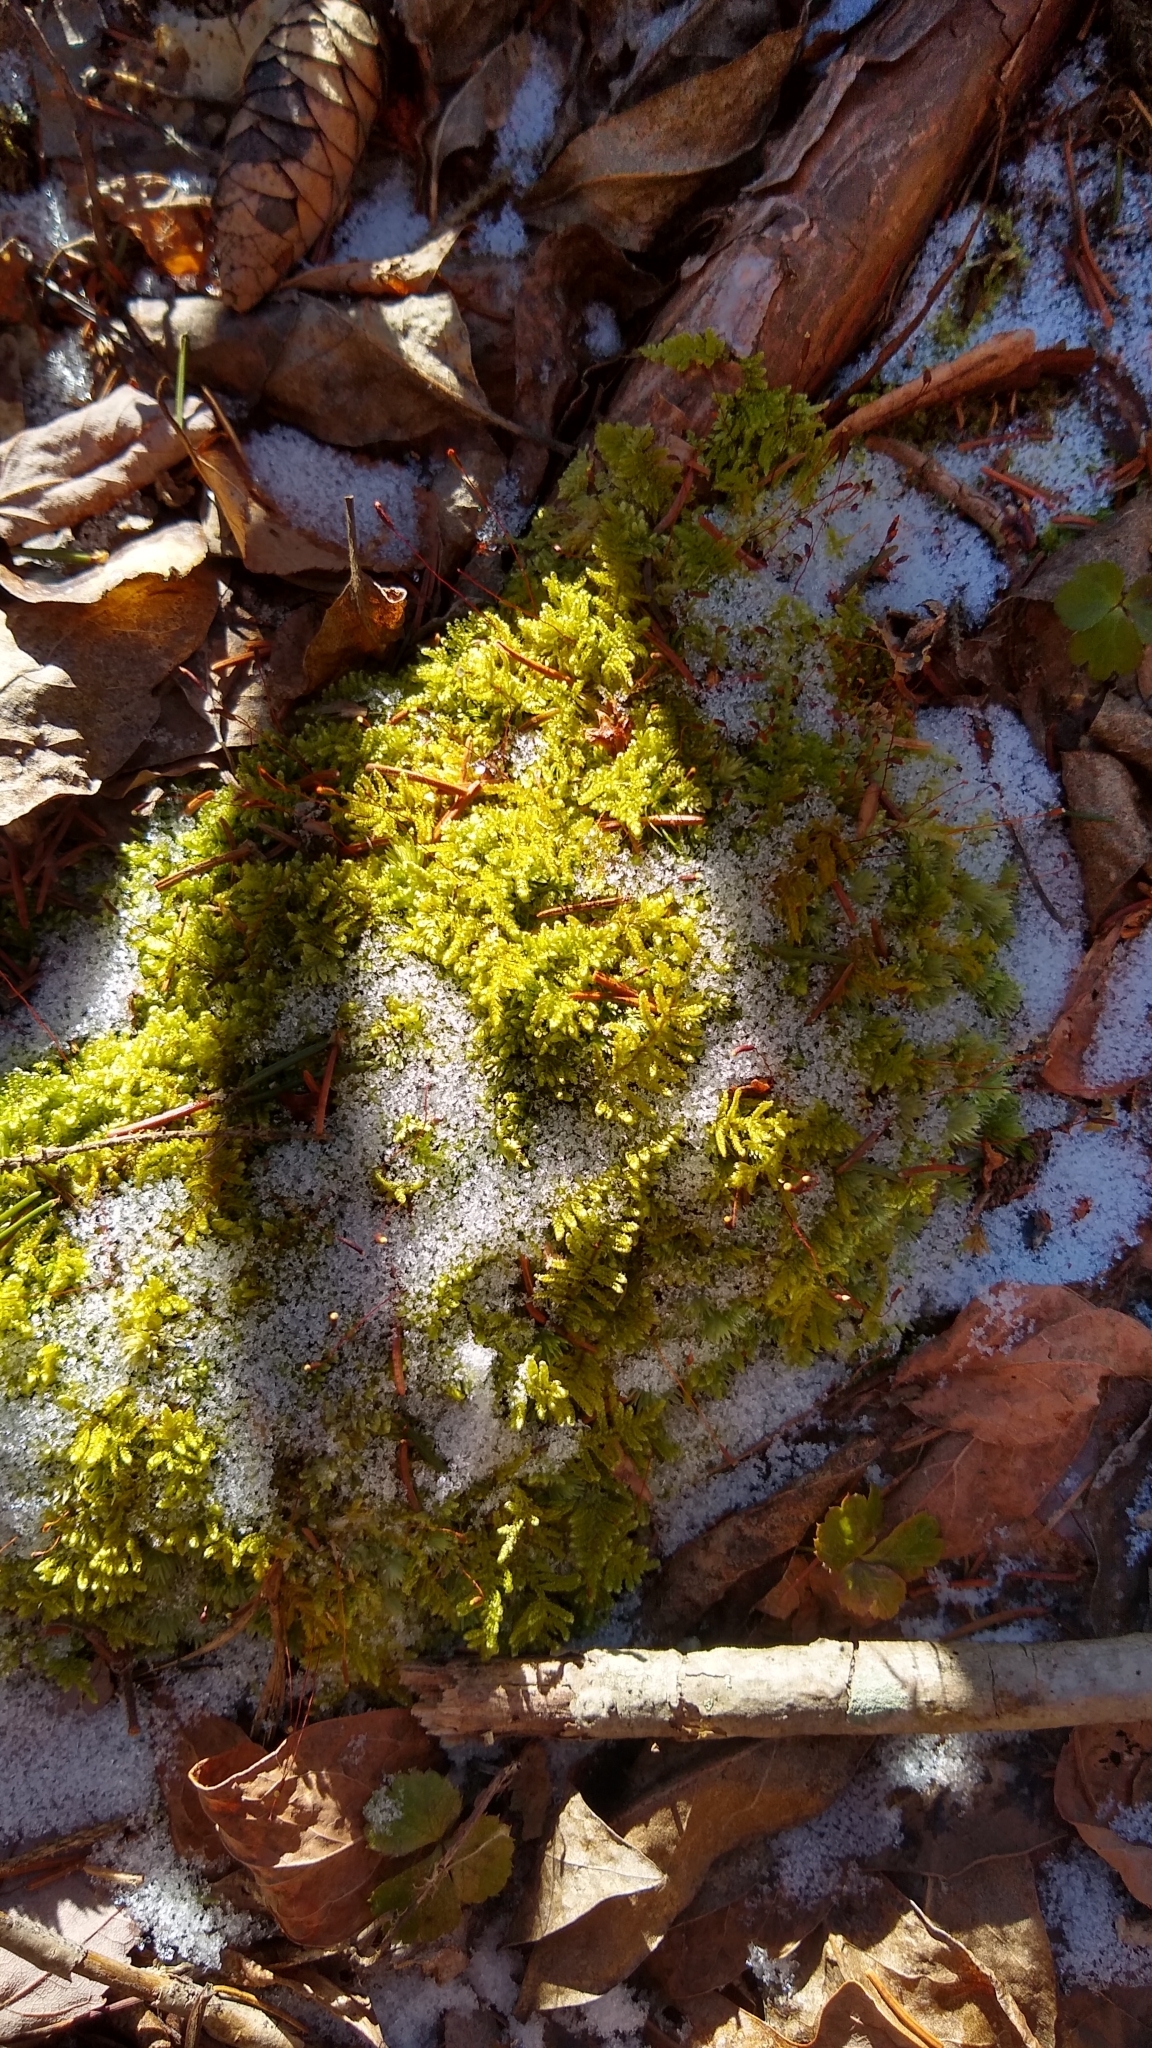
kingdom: Plantae
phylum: Bryophyta
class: Bryopsida
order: Hypnales
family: Callicladiaceae
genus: Callicladium
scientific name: Callicladium imponens
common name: Brocade moss
